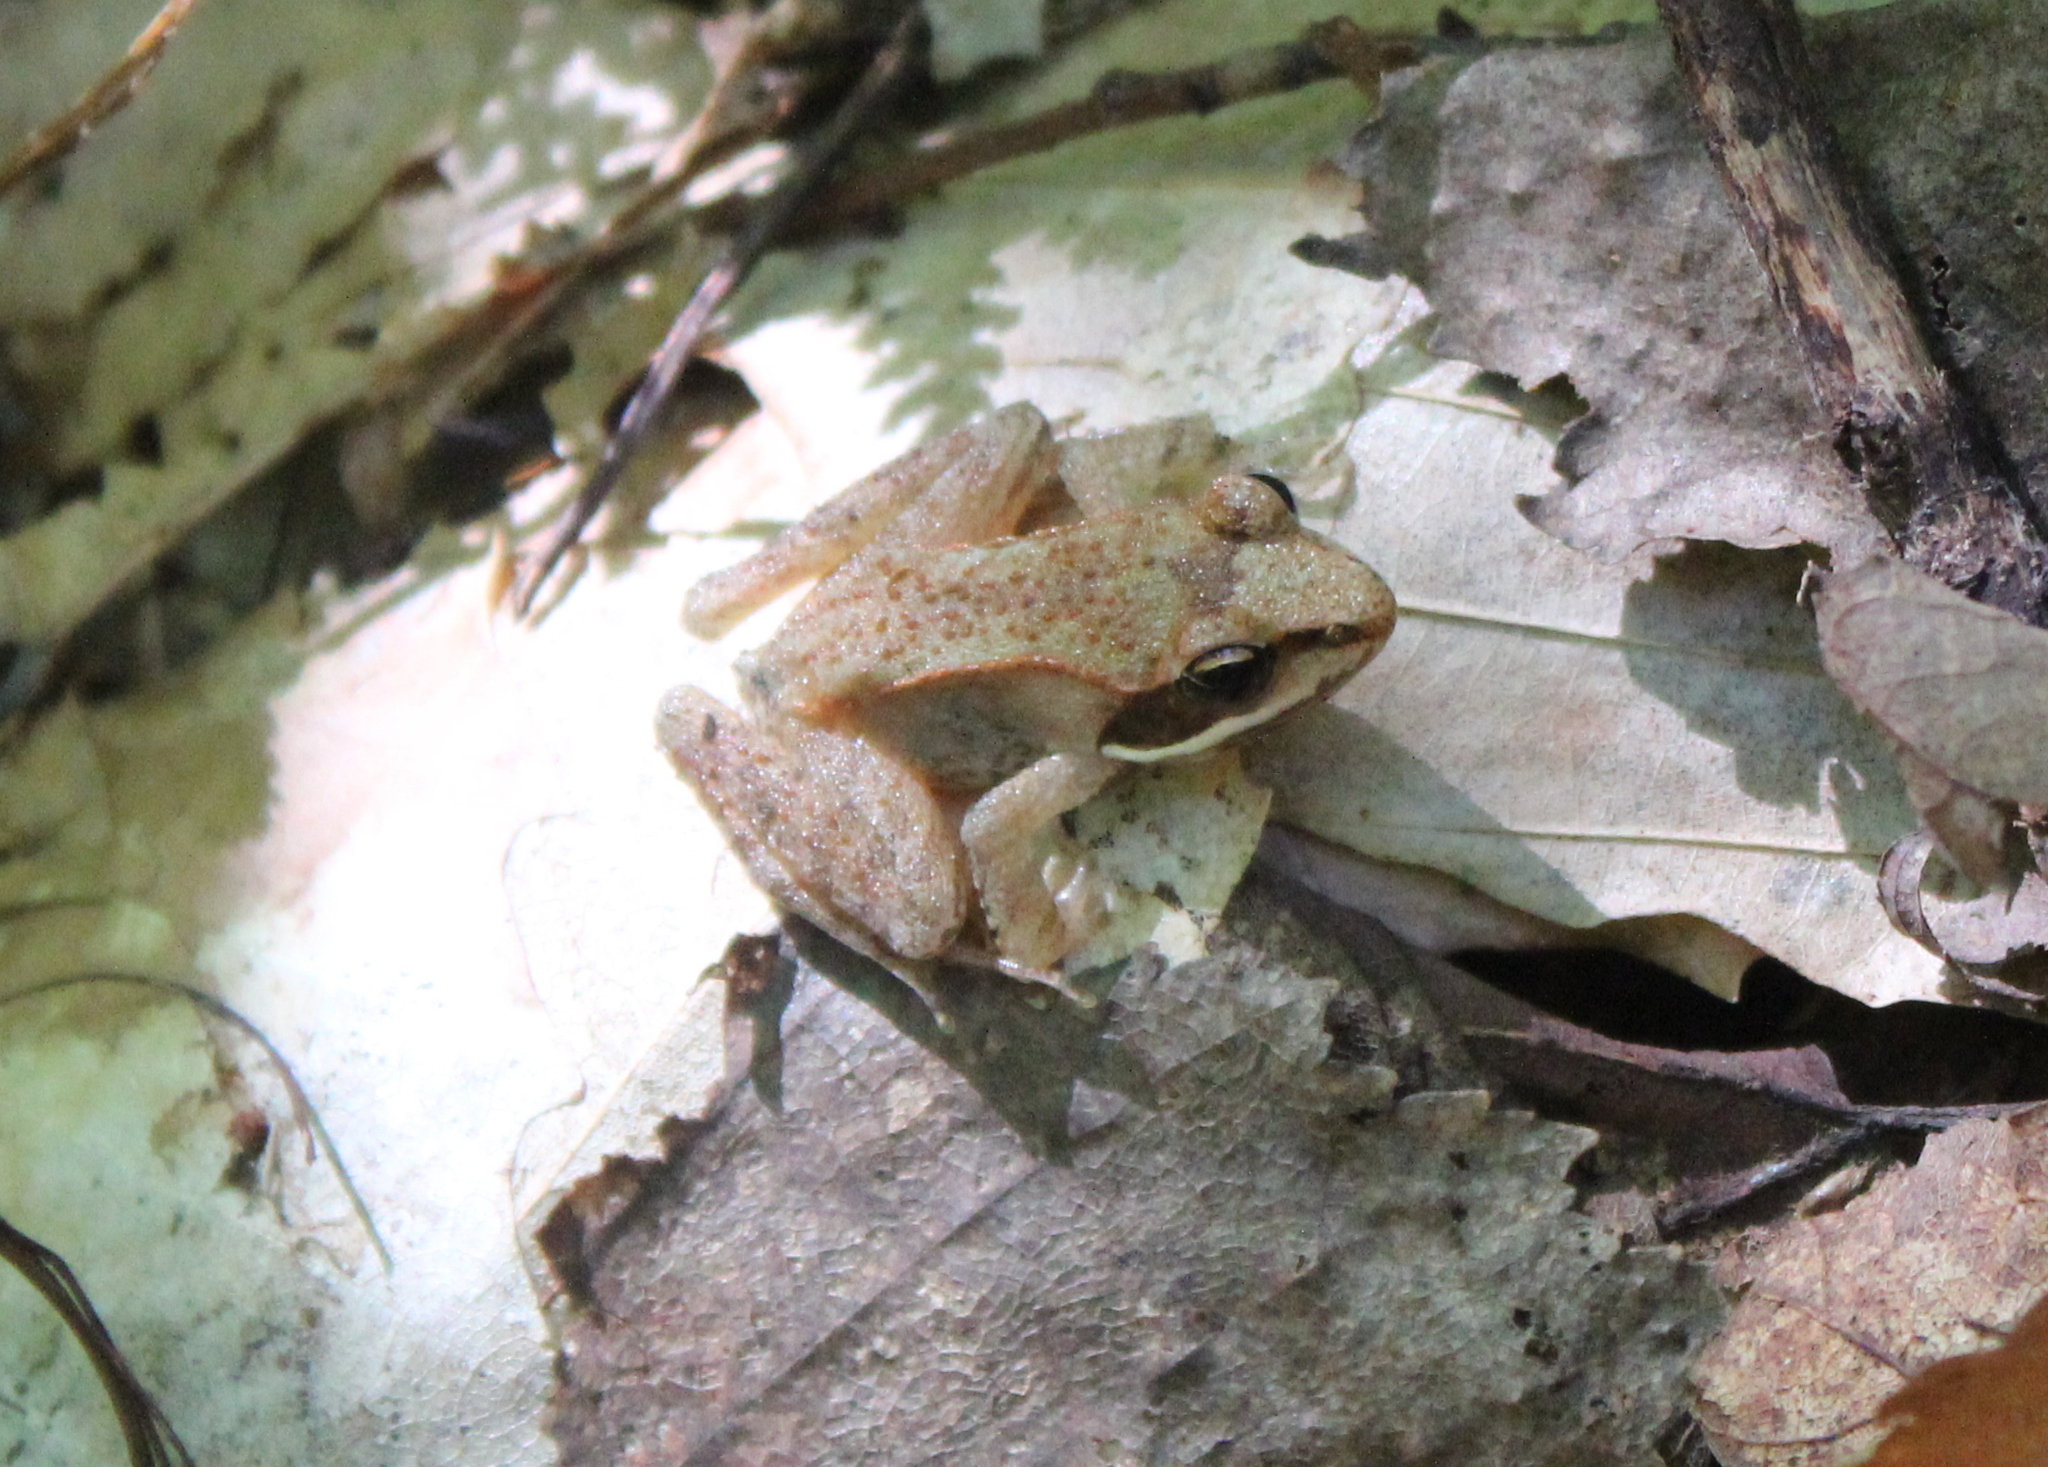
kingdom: Animalia
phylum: Chordata
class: Amphibia
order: Anura
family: Ranidae
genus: Lithobates
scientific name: Lithobates sylvaticus
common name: Wood frog
